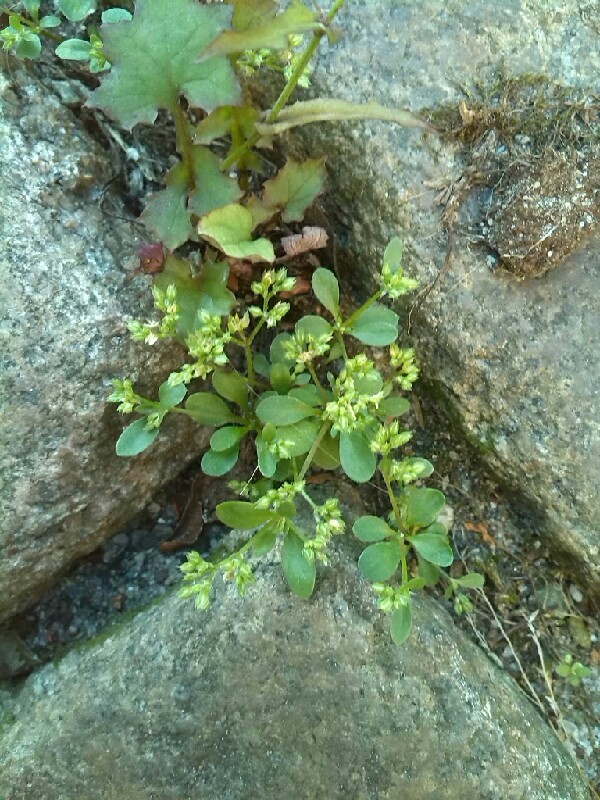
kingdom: Plantae
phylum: Tracheophyta
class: Magnoliopsida
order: Caryophyllales
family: Caryophyllaceae
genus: Polycarpon
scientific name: Polycarpon tetraphyllum
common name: Four-leaved all-seed
